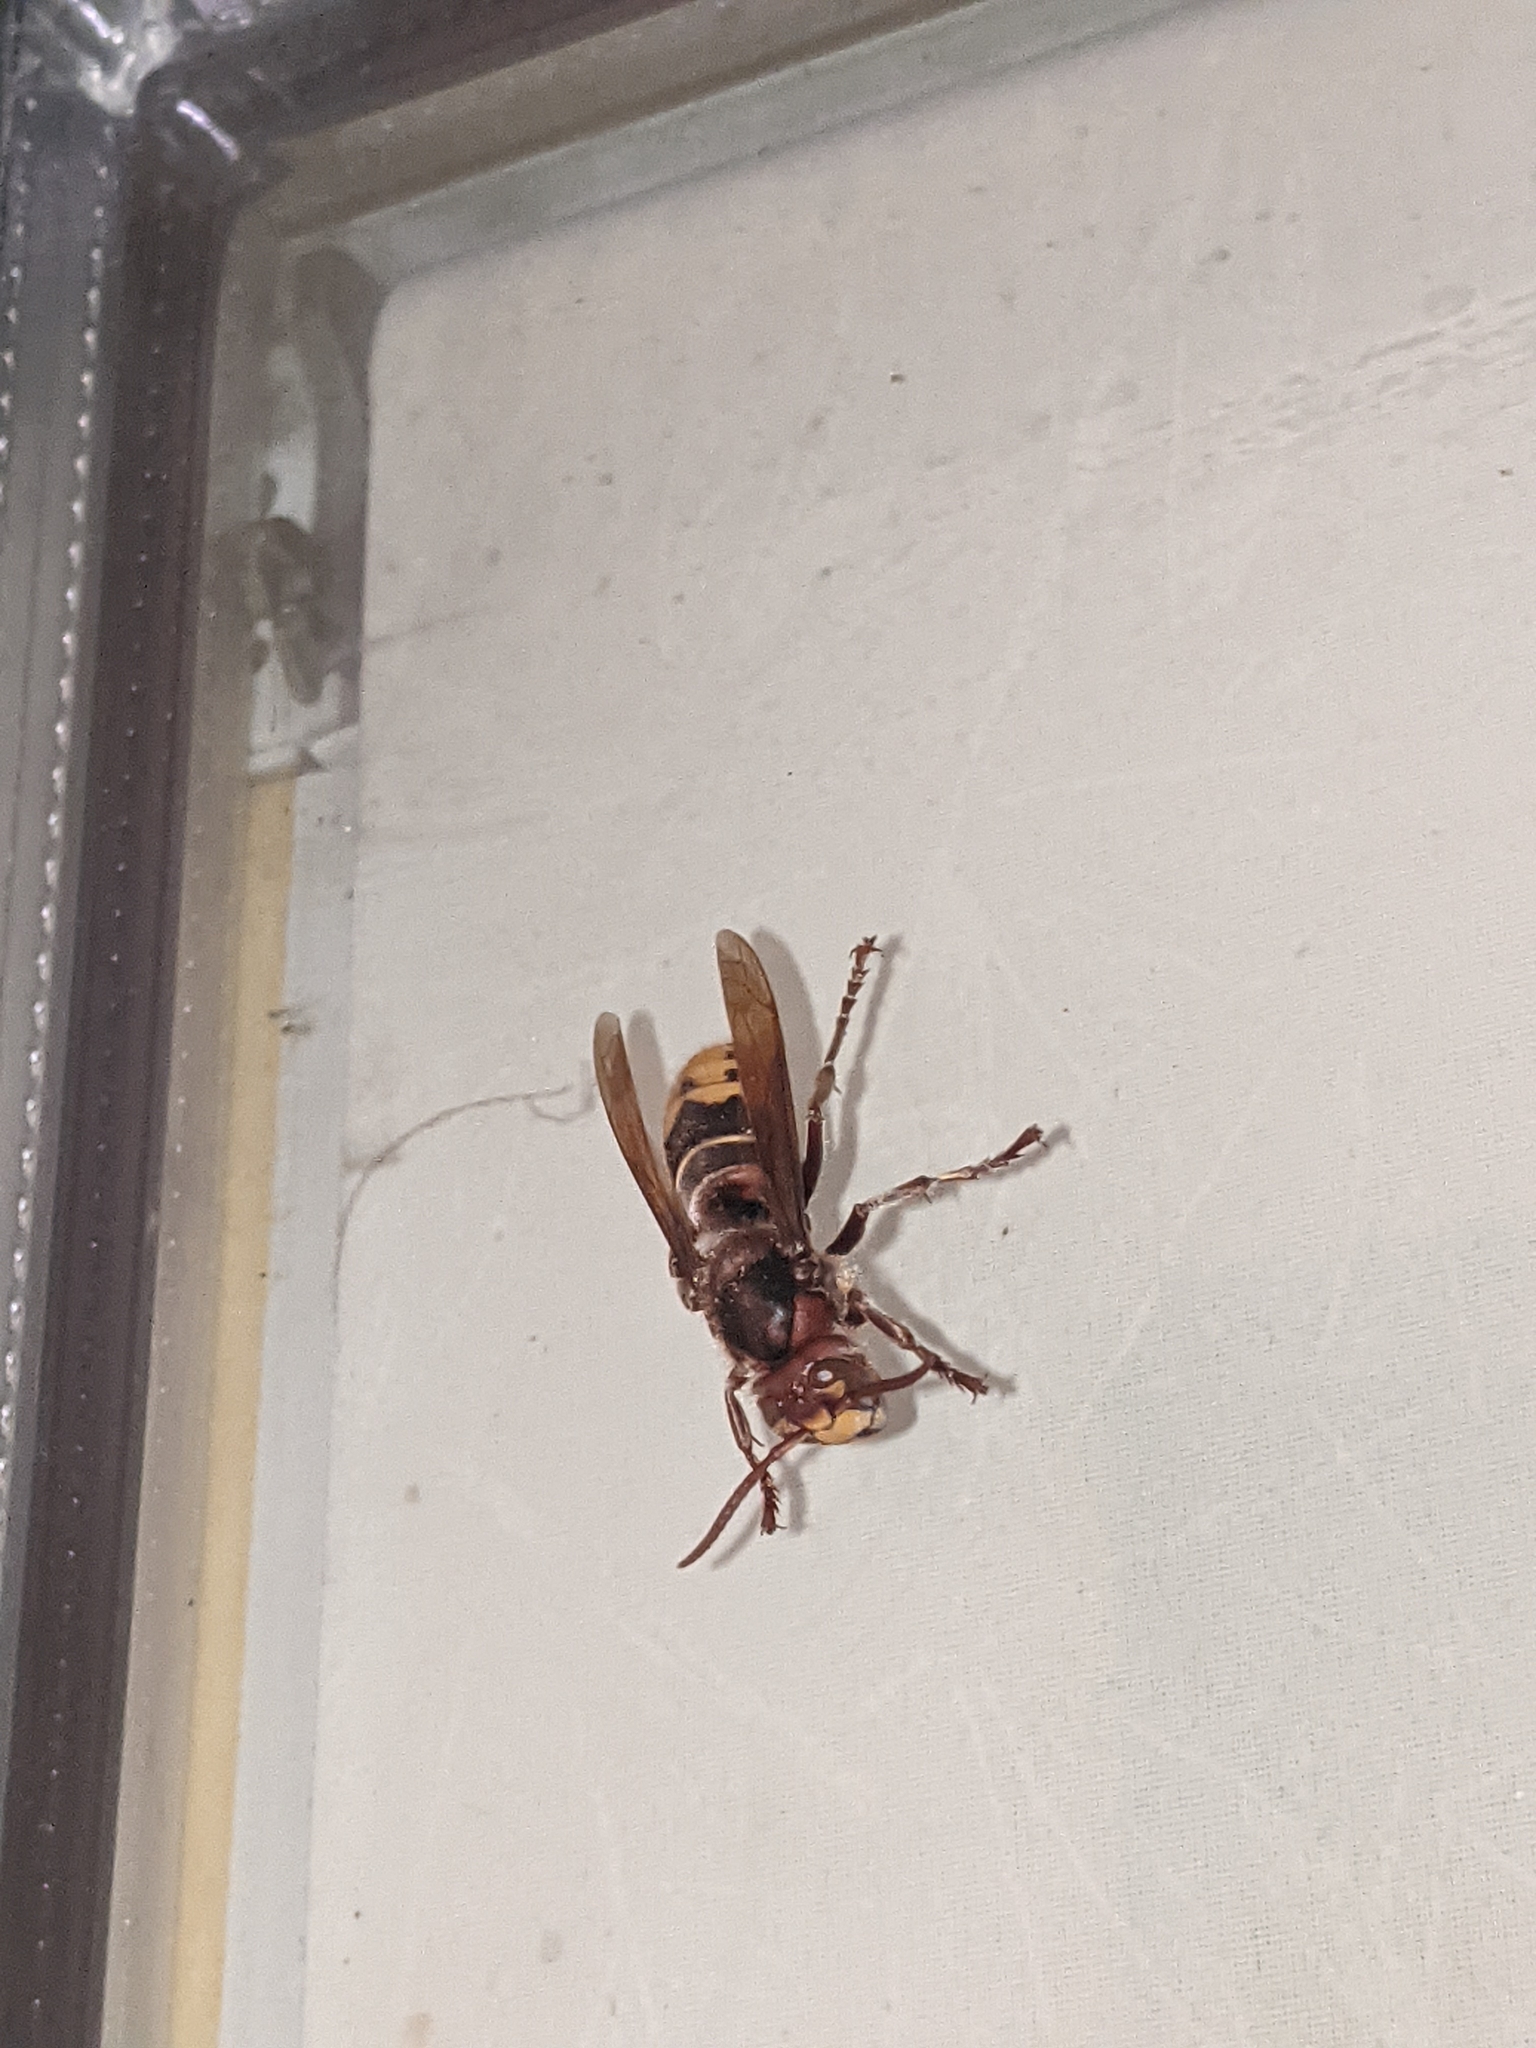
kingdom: Animalia
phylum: Arthropoda
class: Insecta
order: Hymenoptera
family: Vespidae
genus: Vespa
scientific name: Vespa crabro
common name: Hornet
